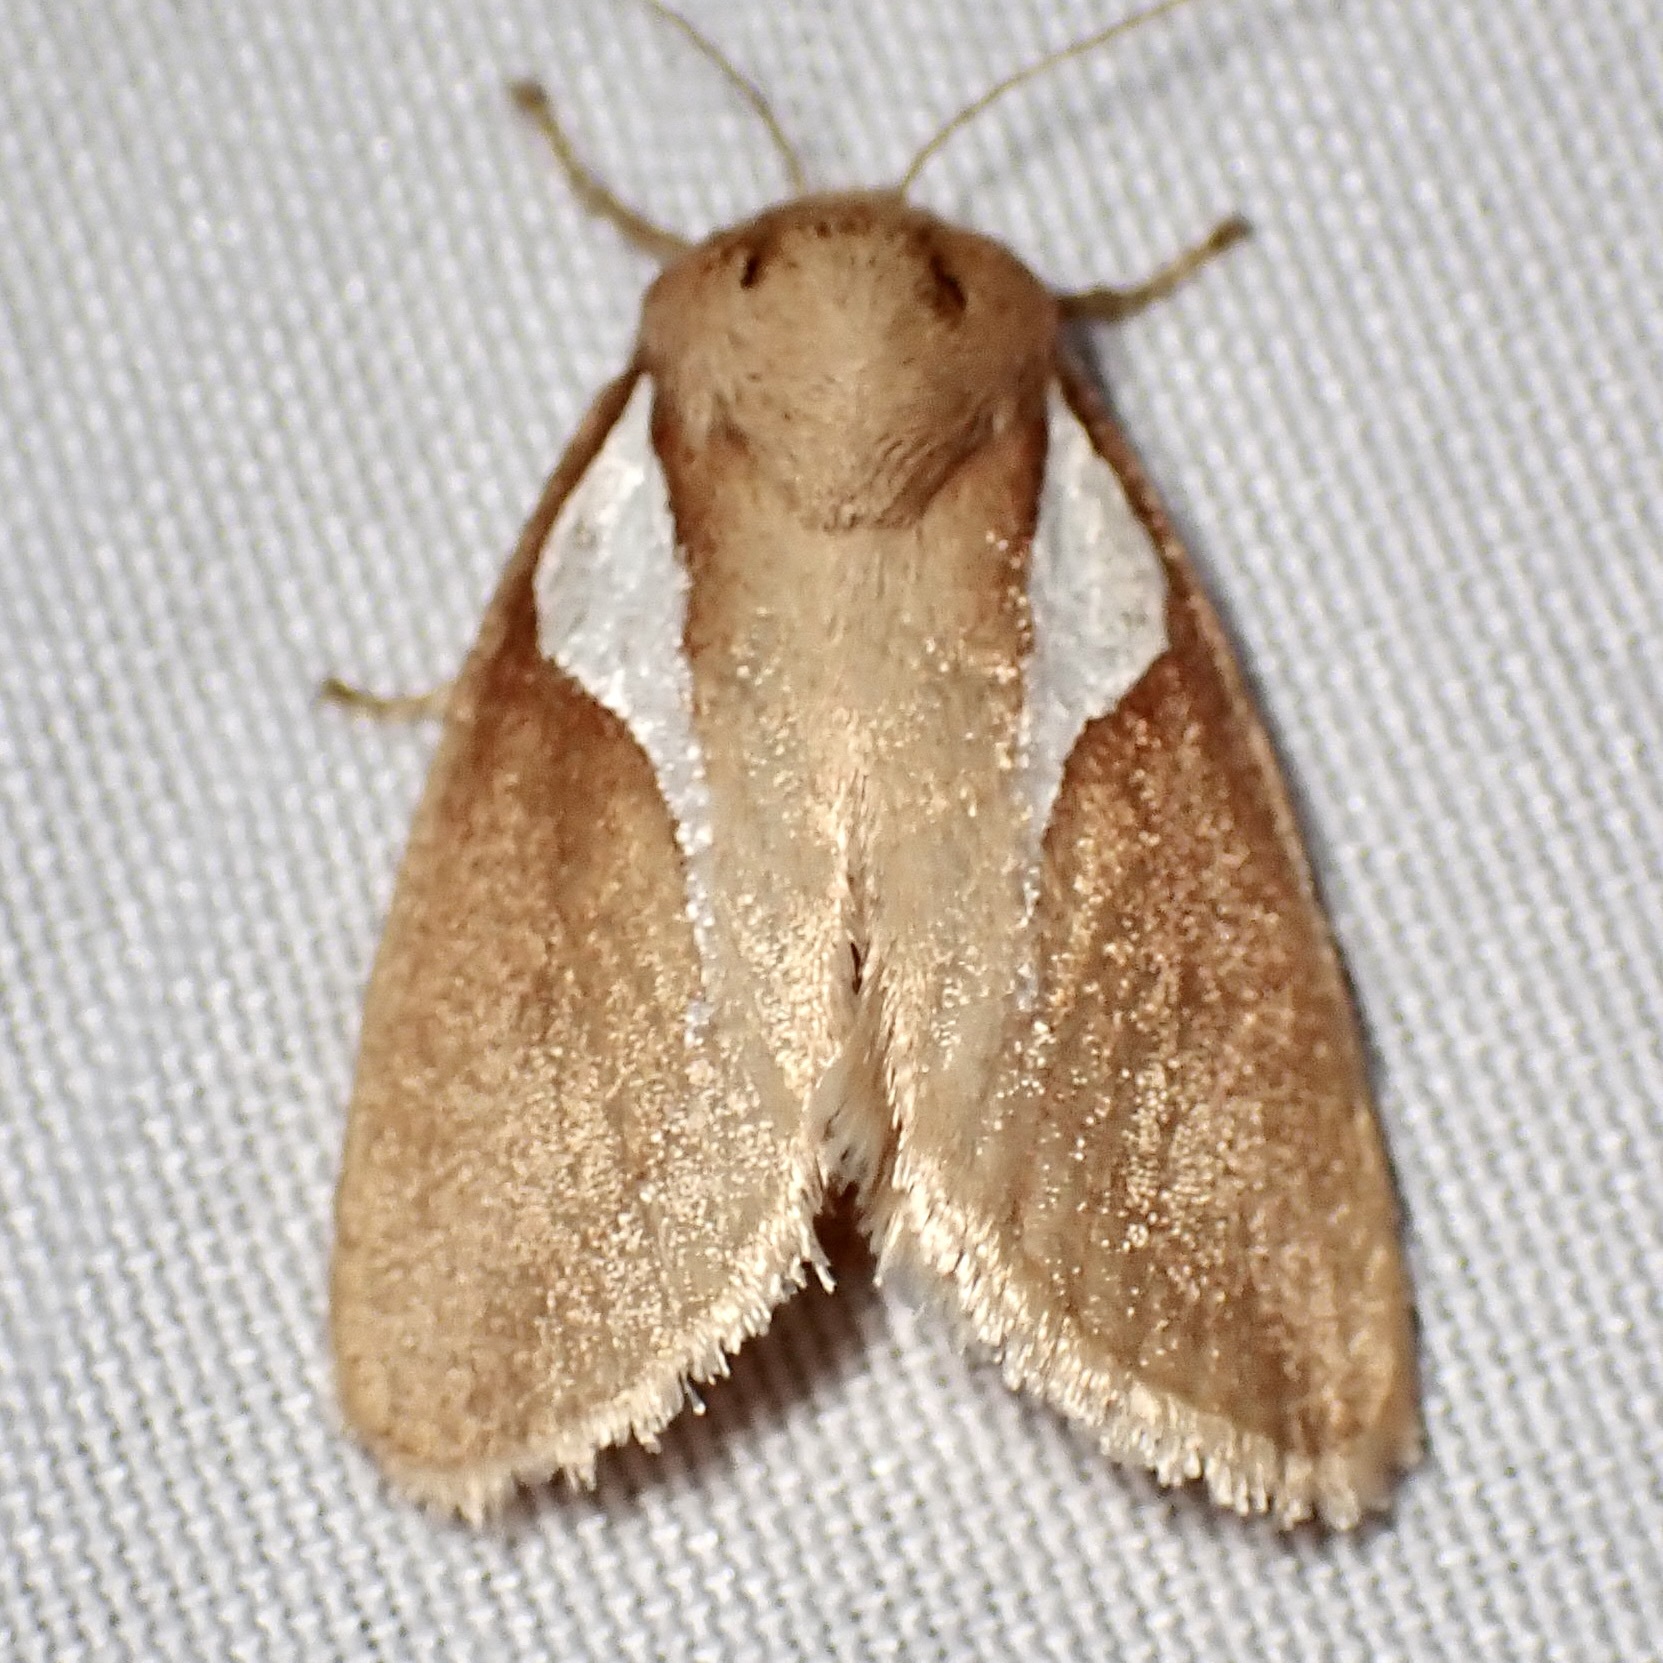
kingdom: Animalia
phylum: Arthropoda
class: Insecta
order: Lepidoptera
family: Limacodidae
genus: Prolimacodes
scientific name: Prolimacodes trigona
